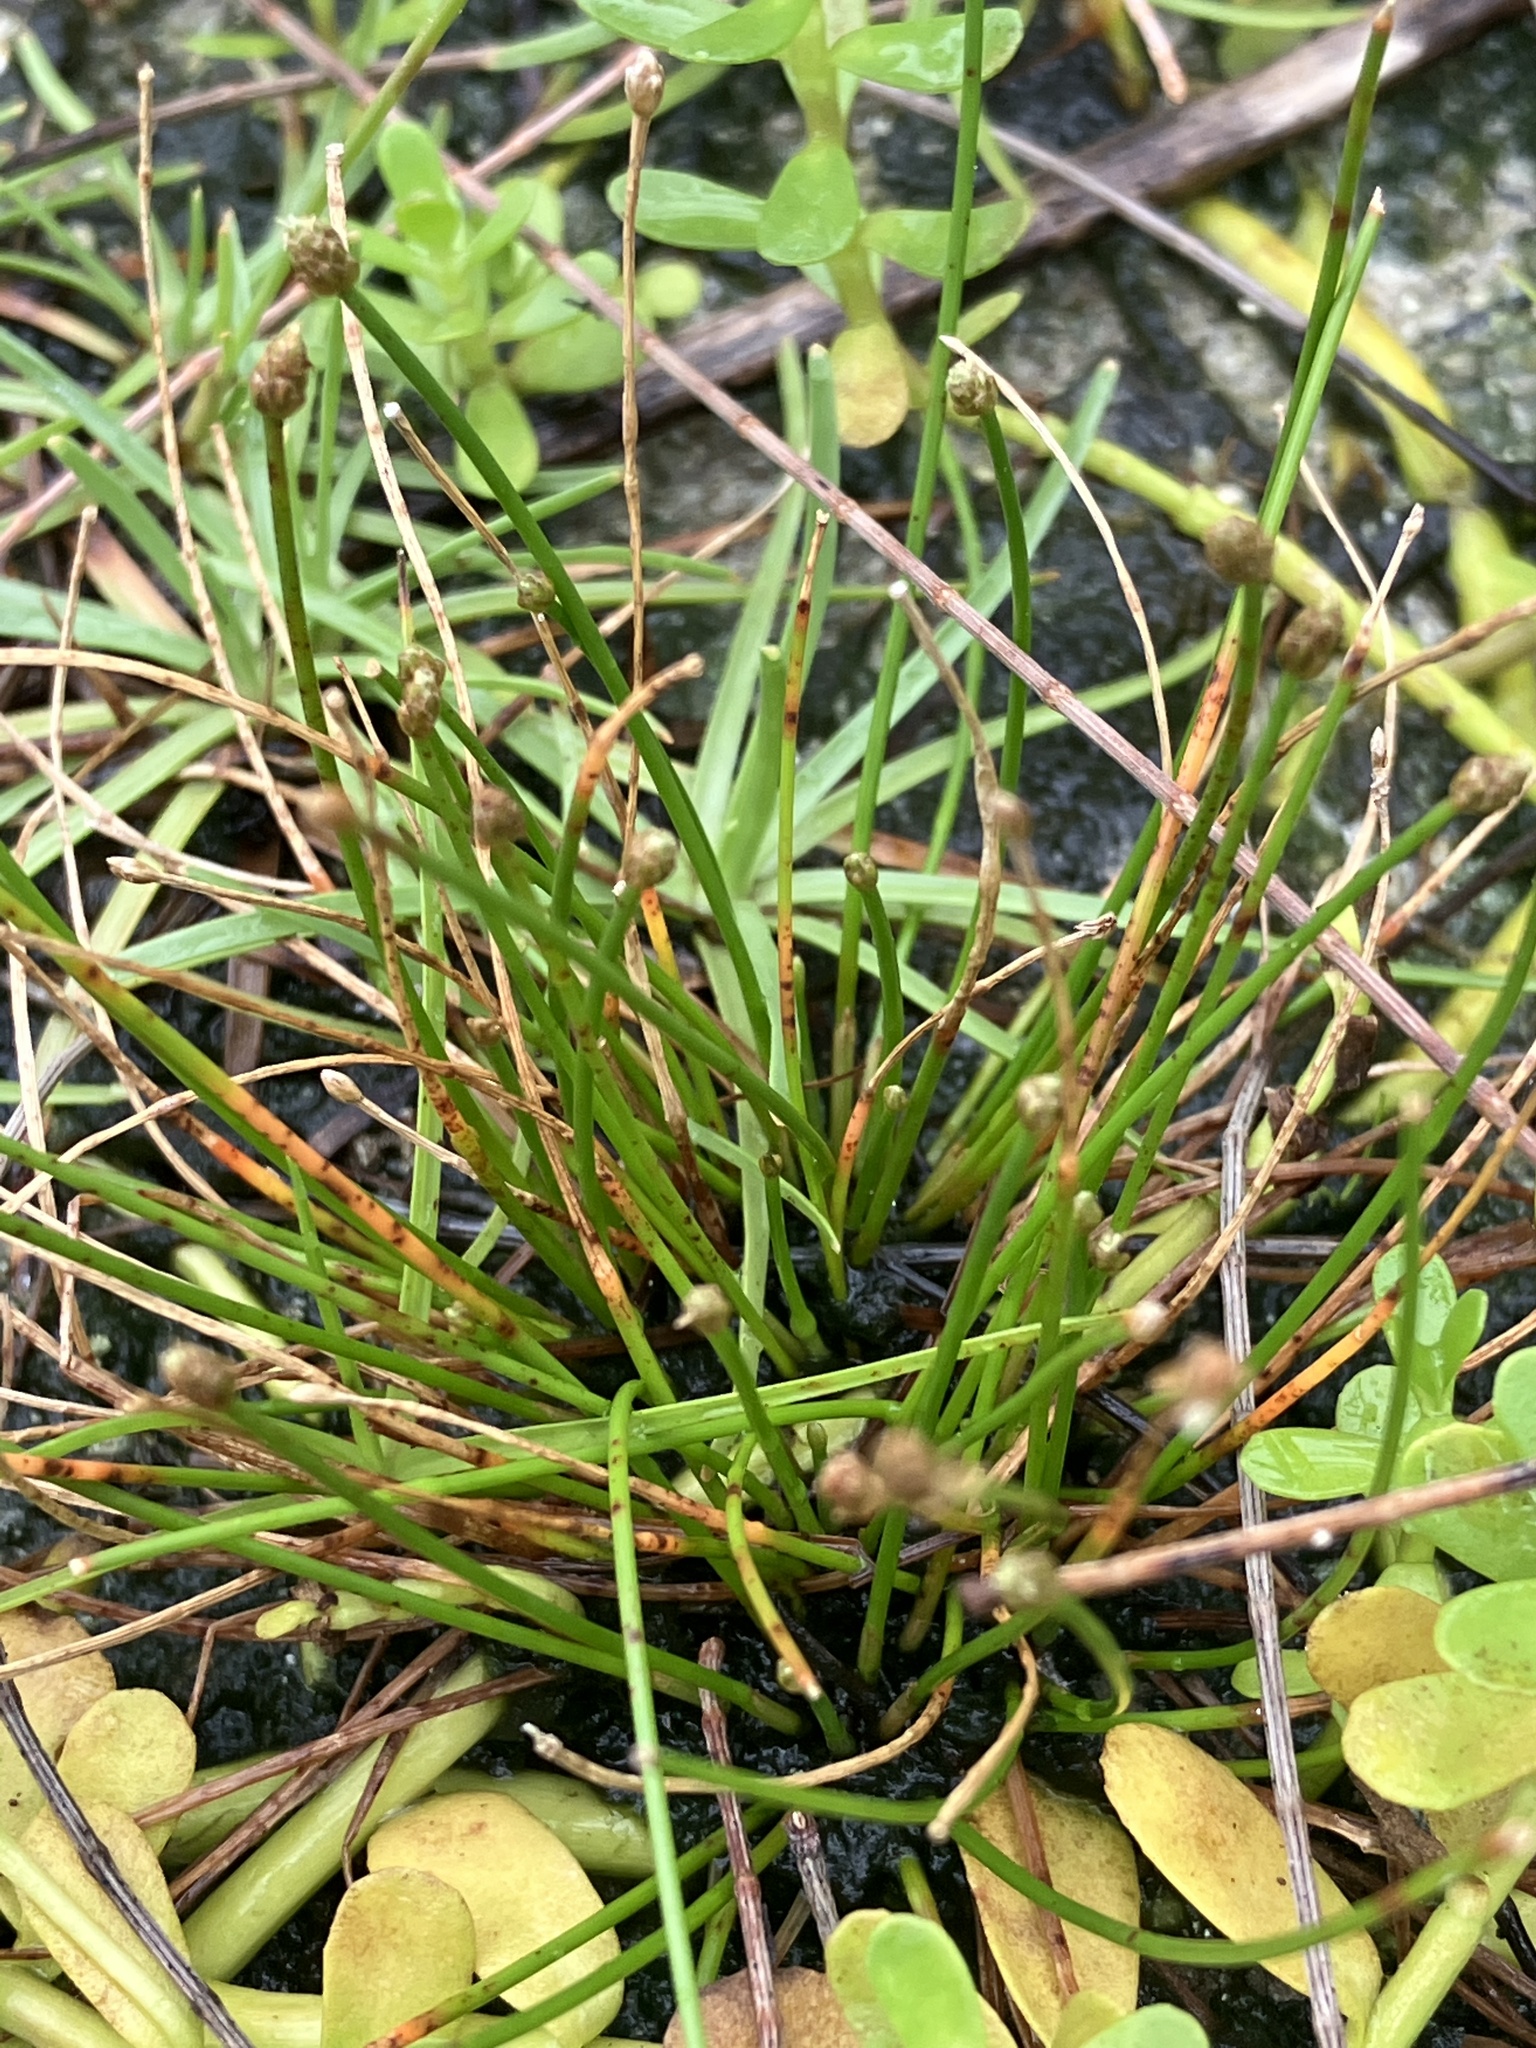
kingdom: Plantae
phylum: Tracheophyta
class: Liliopsida
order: Poales
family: Cyperaceae
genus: Eleocharis
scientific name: Eleocharis geniculata
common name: Canada spikesedge
